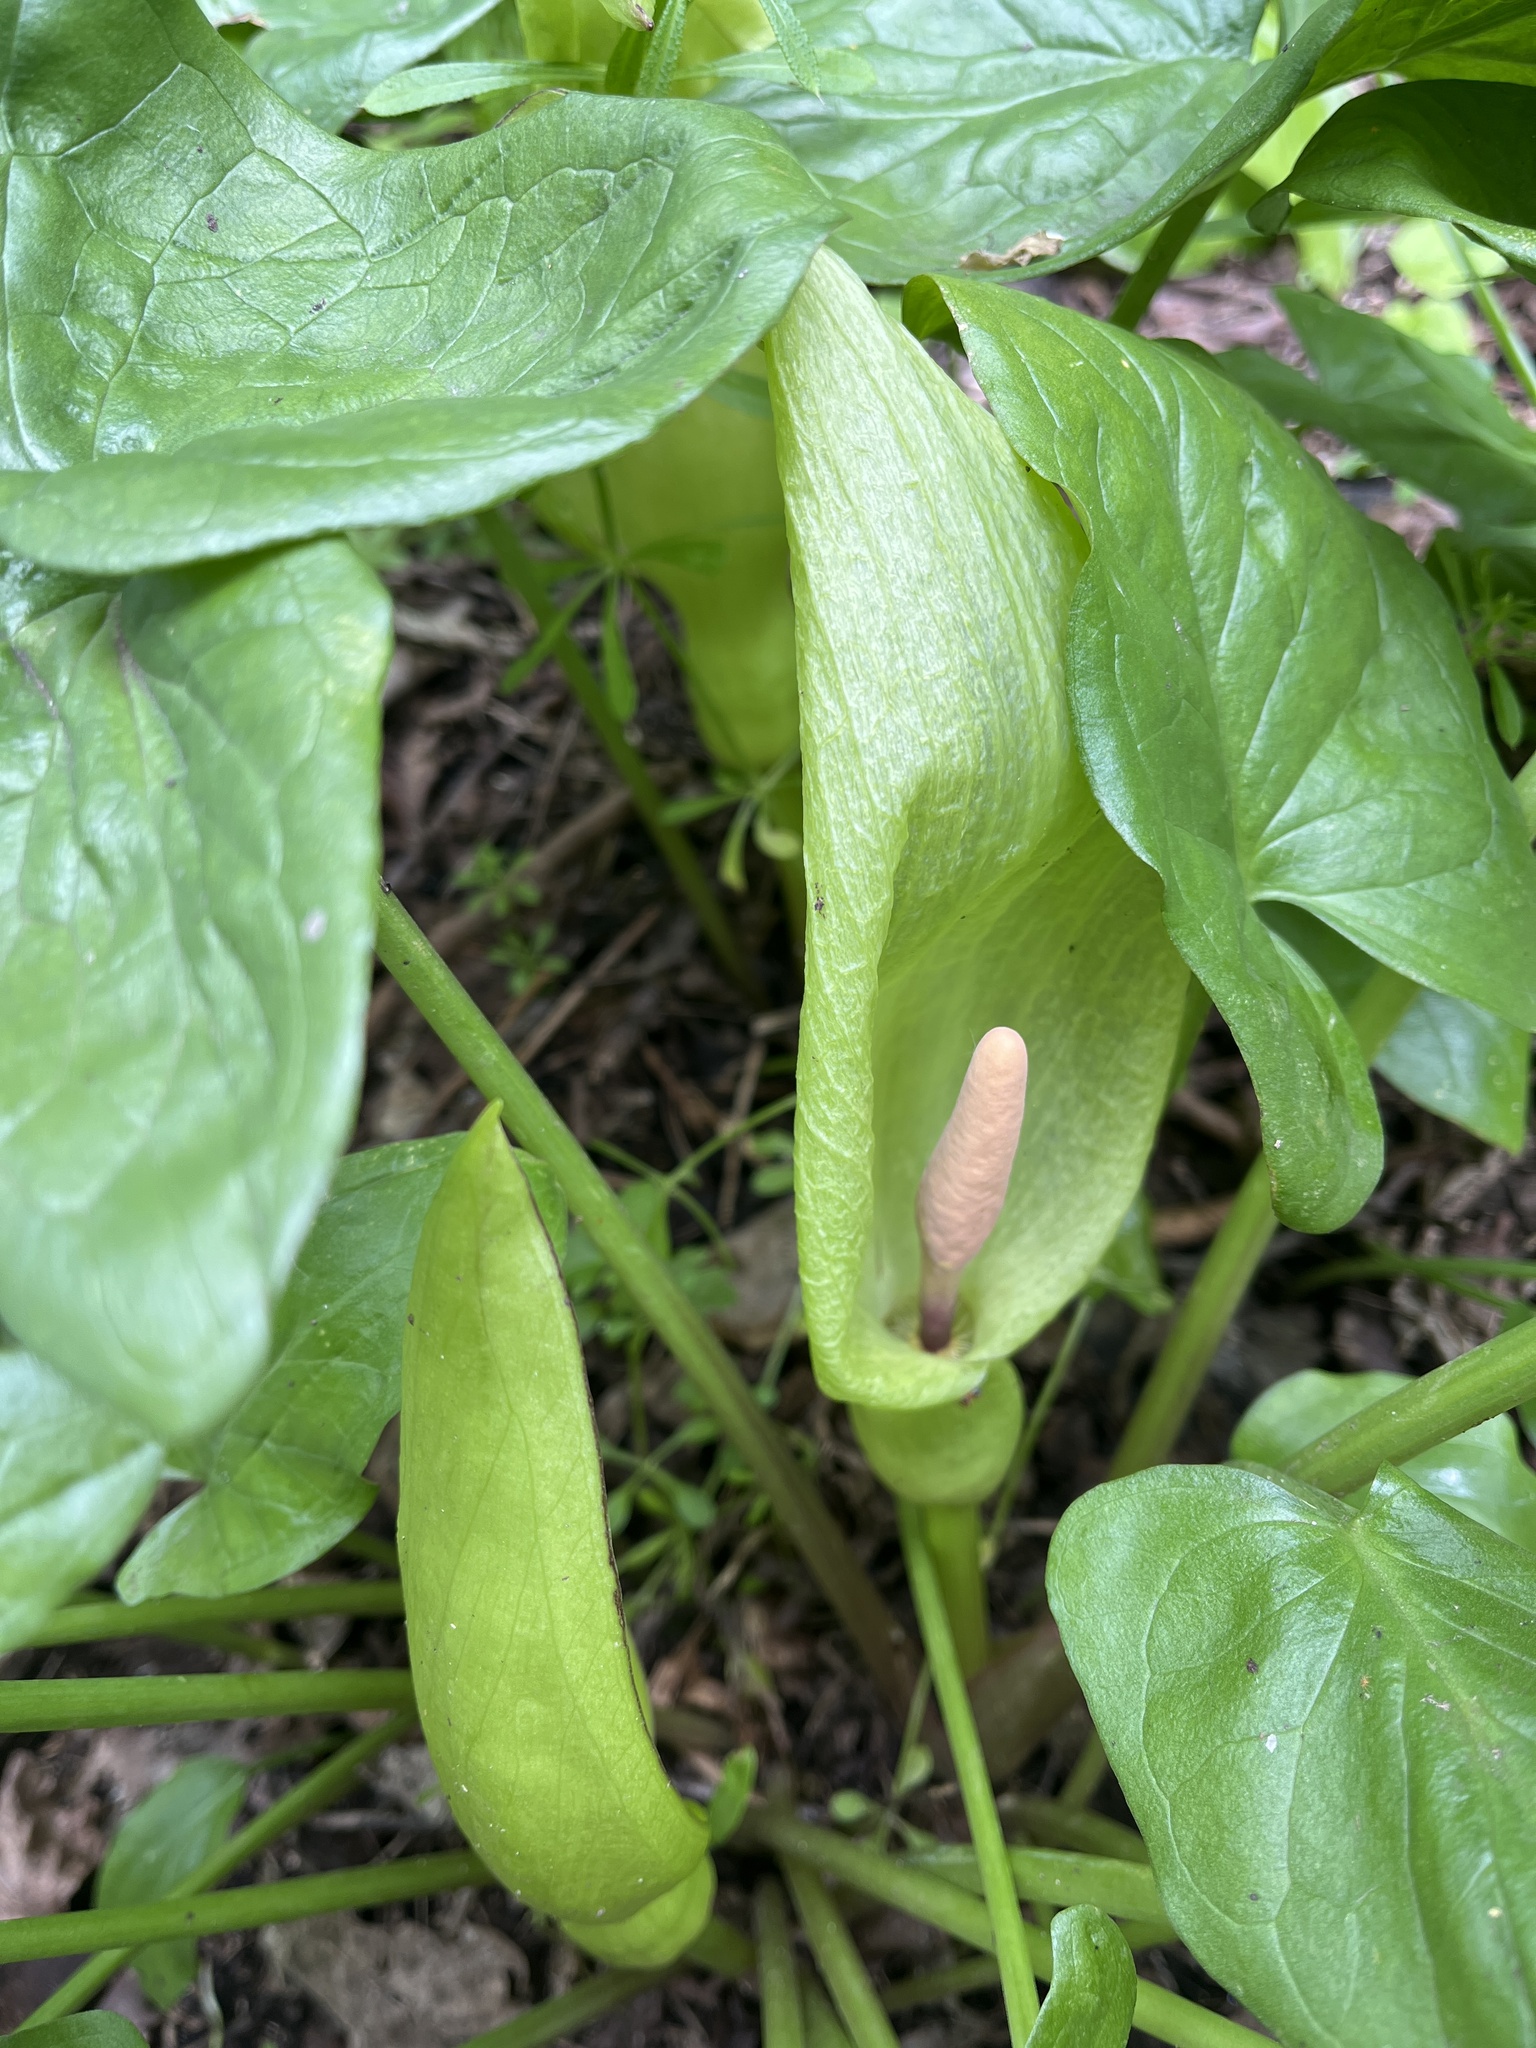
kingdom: Plantae
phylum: Tracheophyta
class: Liliopsida
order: Alismatales
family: Araceae
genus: Arum
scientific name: Arum maculatum
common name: Lords-and-ladies
